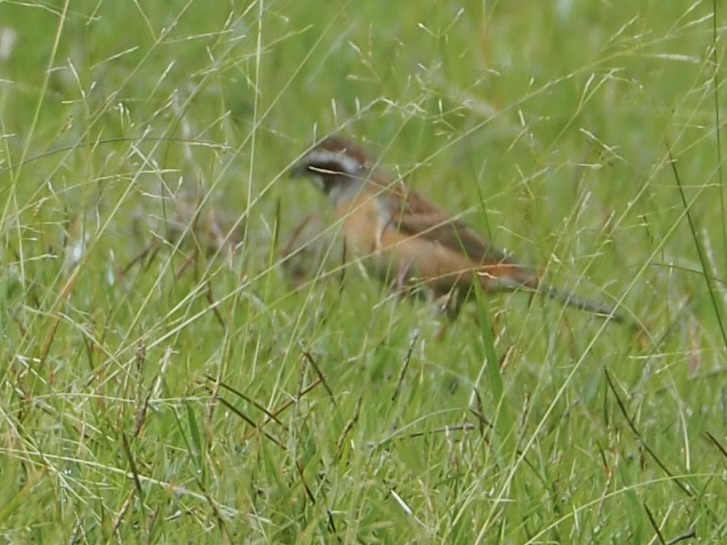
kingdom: Animalia
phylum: Chordata
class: Aves
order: Passeriformes
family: Emberizidae
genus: Emberiza
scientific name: Emberiza cioides
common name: Meadow bunting
